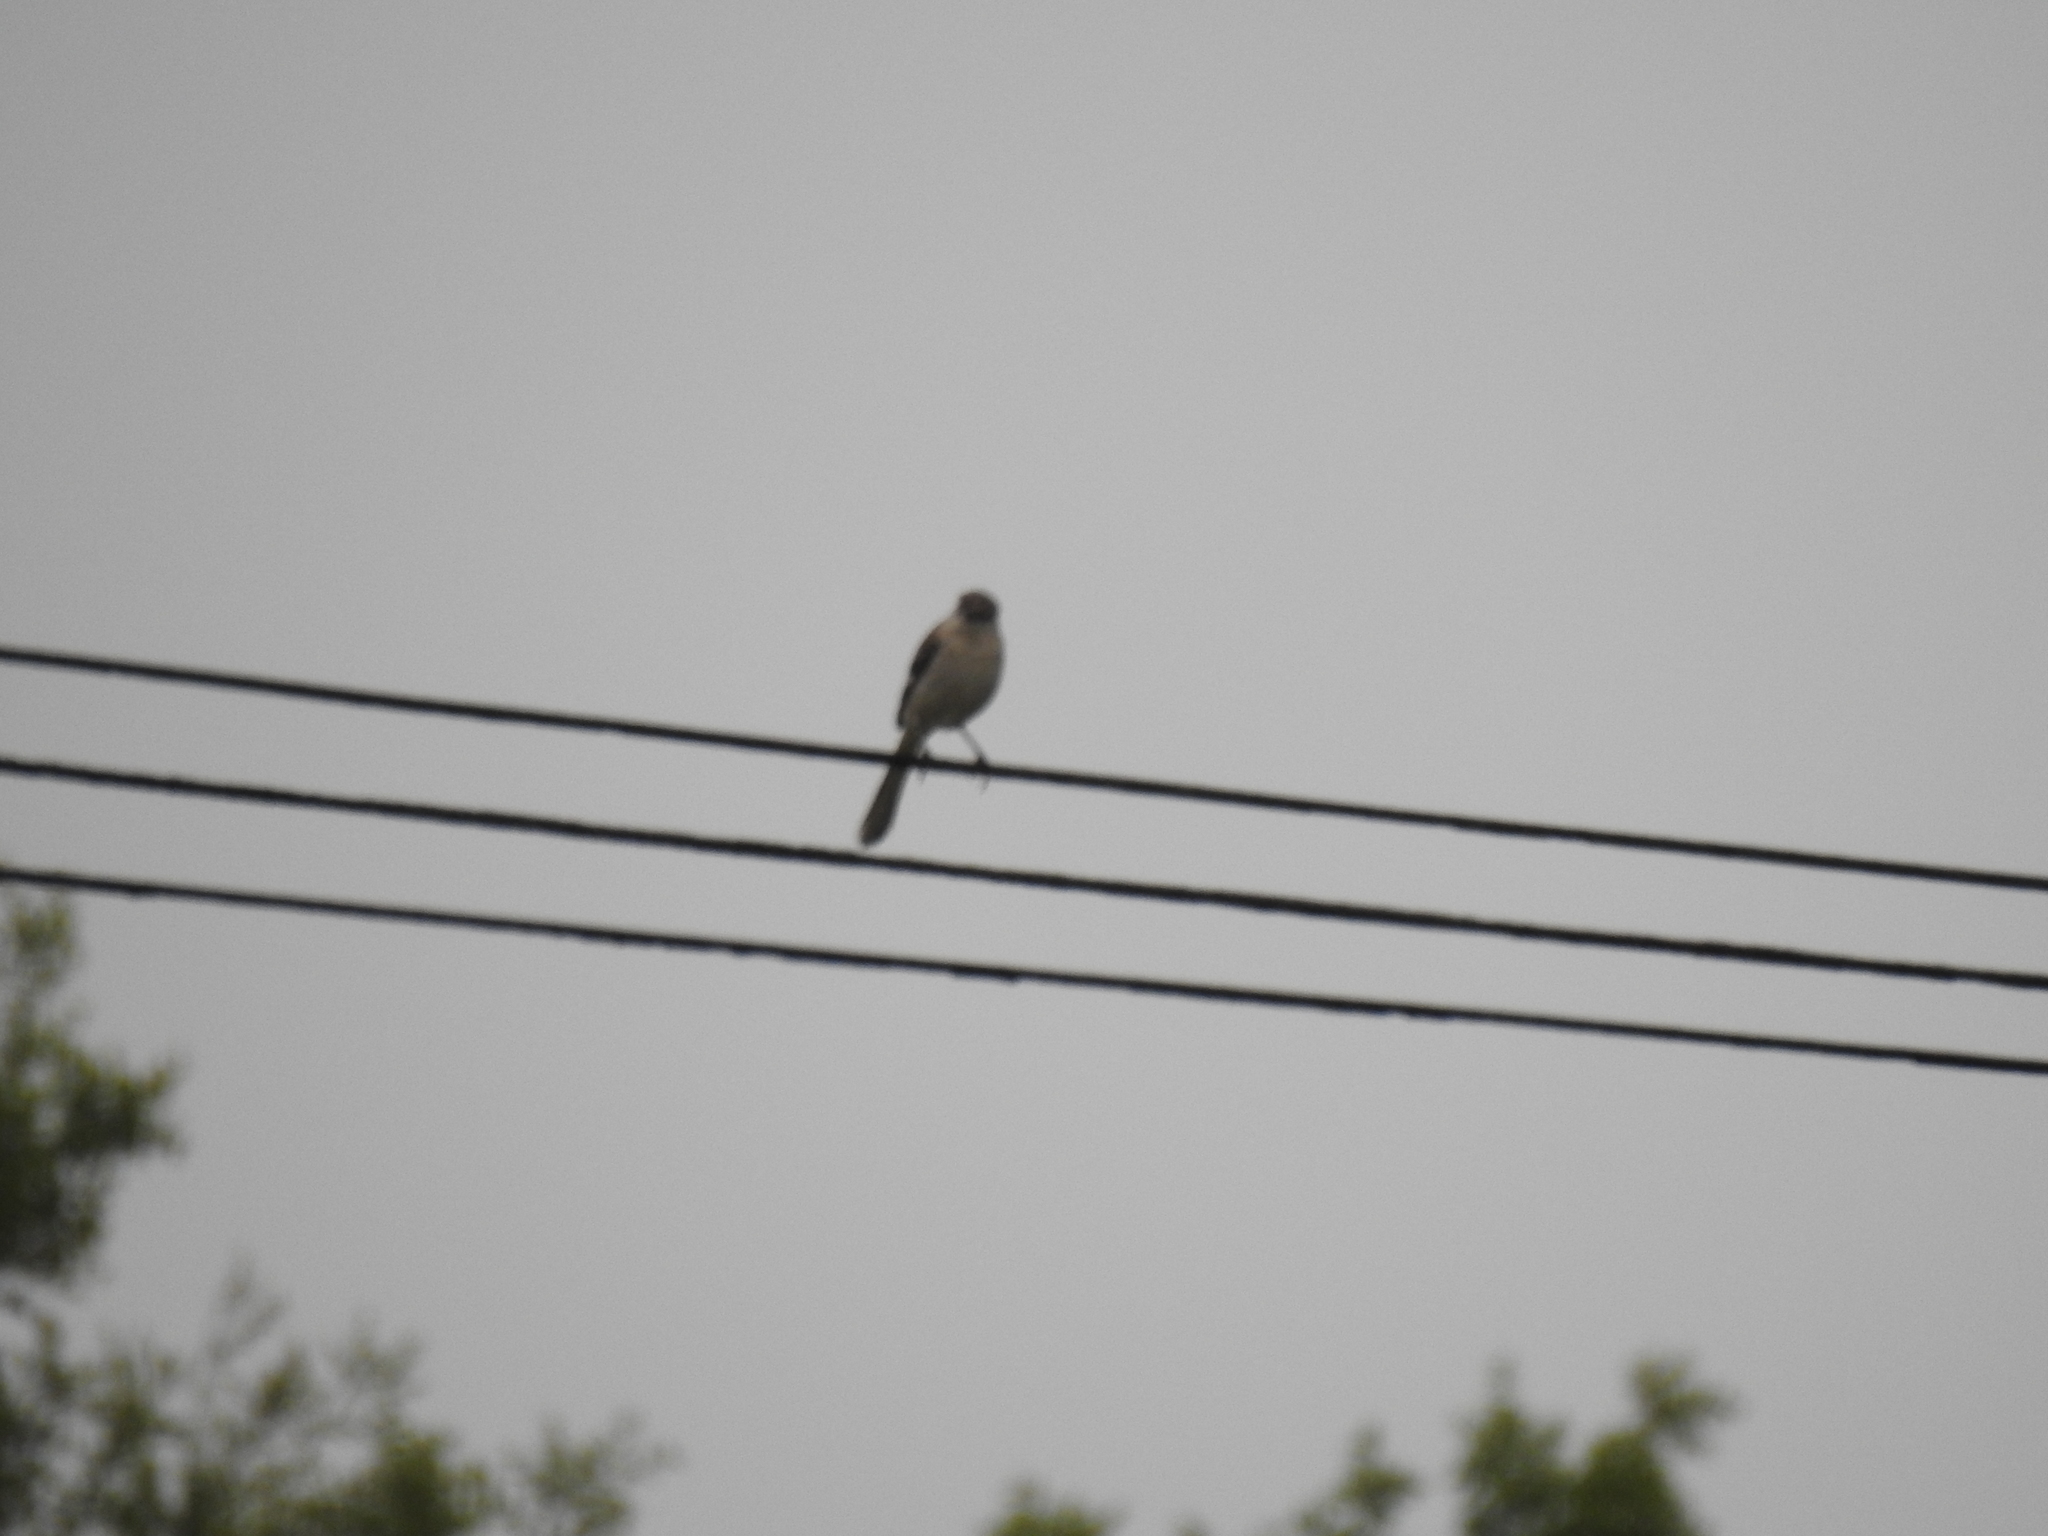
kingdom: Animalia
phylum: Chordata
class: Aves
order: Passeriformes
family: Mimidae
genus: Mimus
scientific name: Mimus polyglottos
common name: Northern mockingbird
